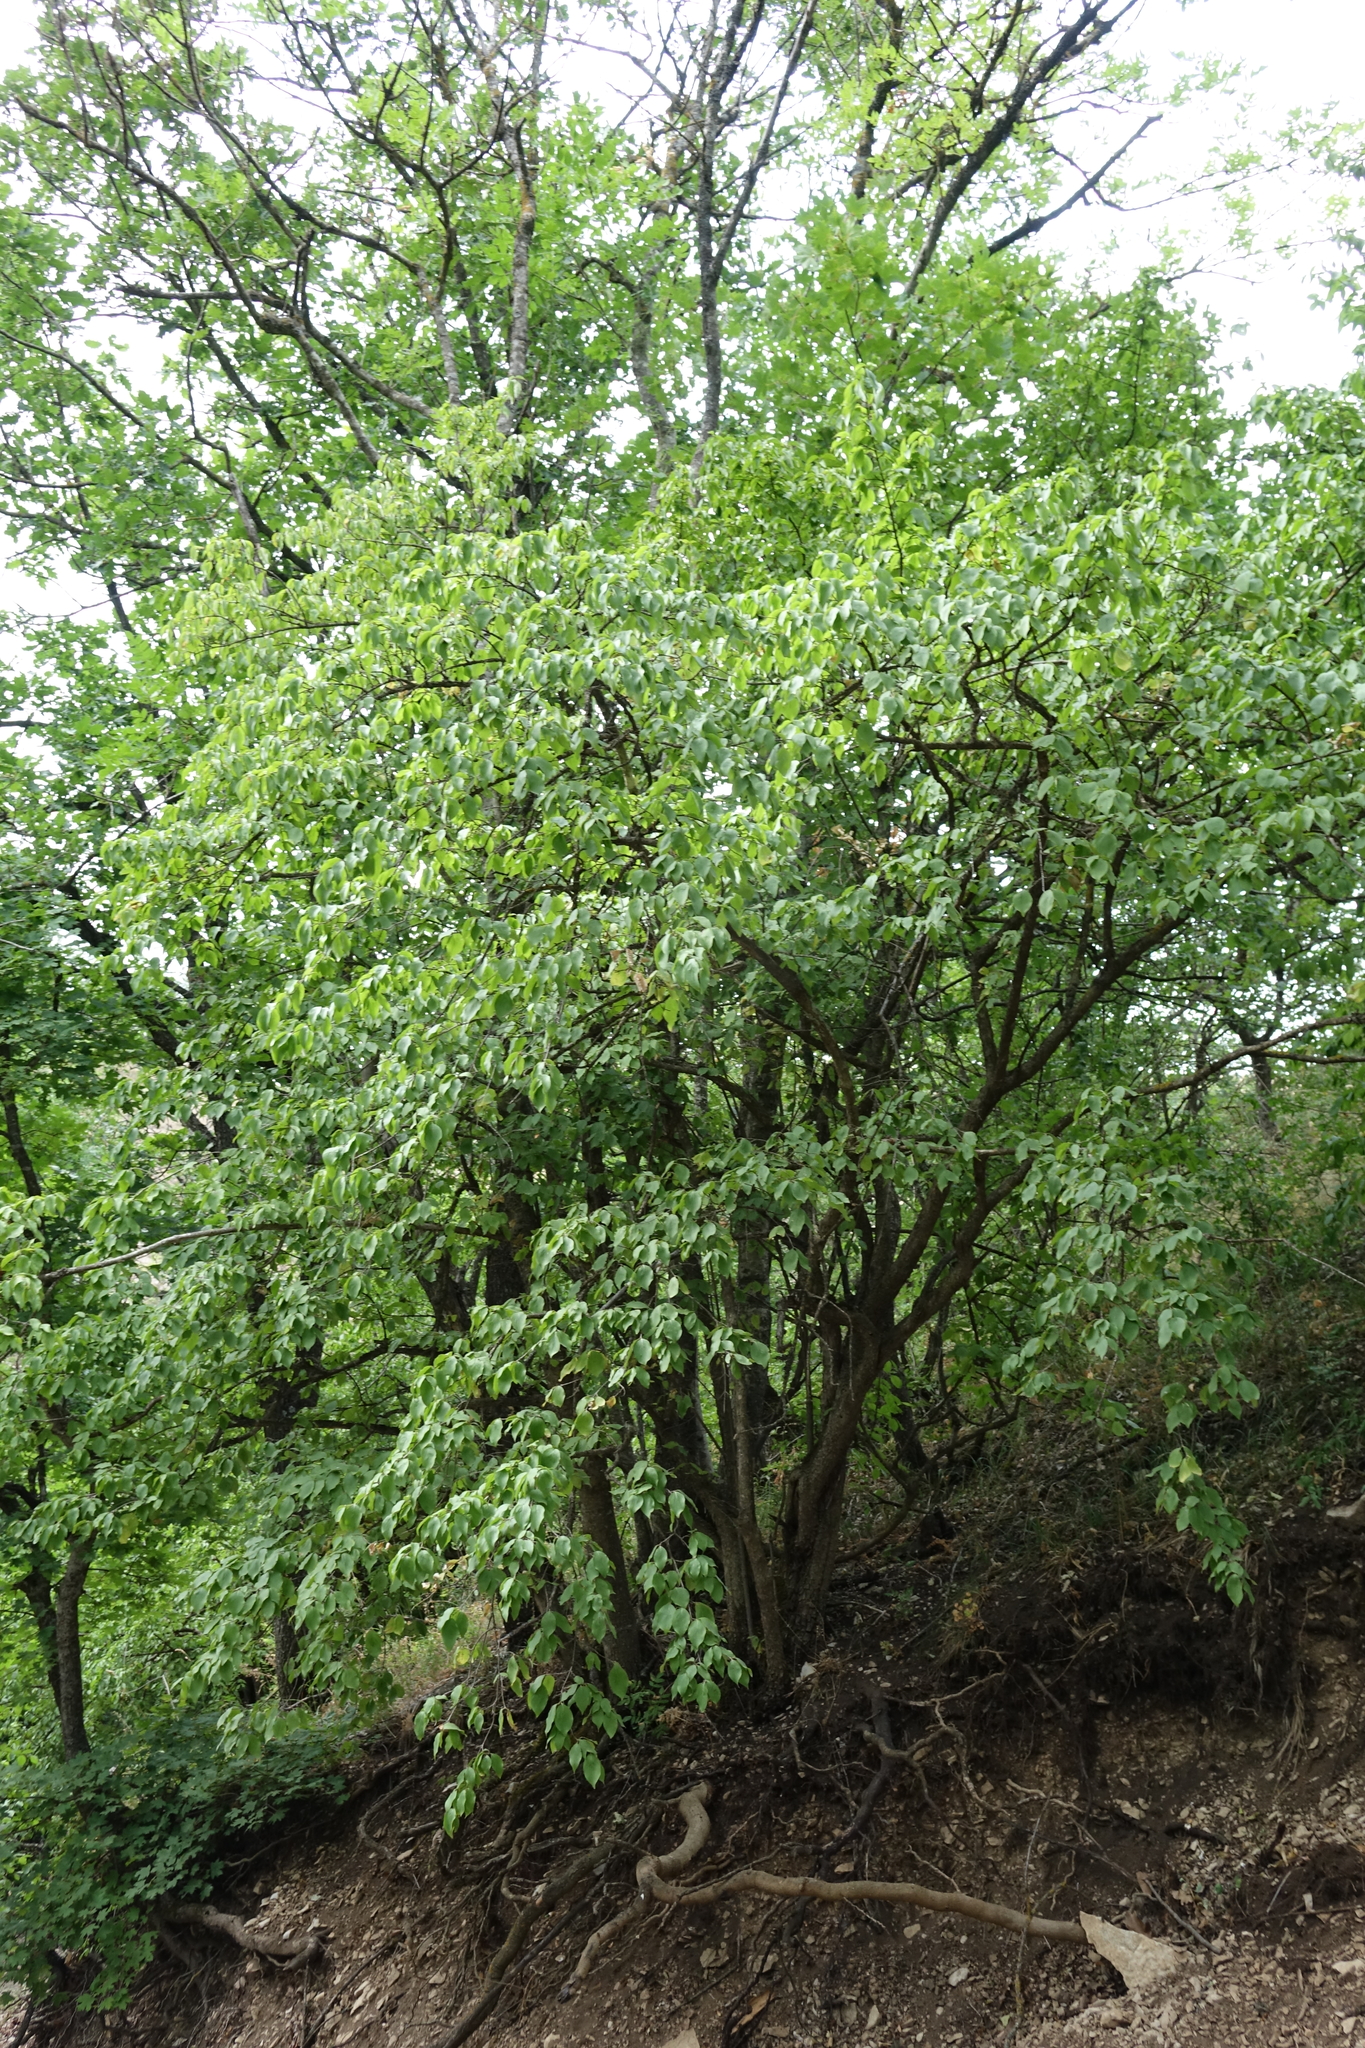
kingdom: Plantae
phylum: Tracheophyta
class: Magnoliopsida
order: Cornales
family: Cornaceae
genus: Cornus
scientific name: Cornus mas
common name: Cornelian-cherry
